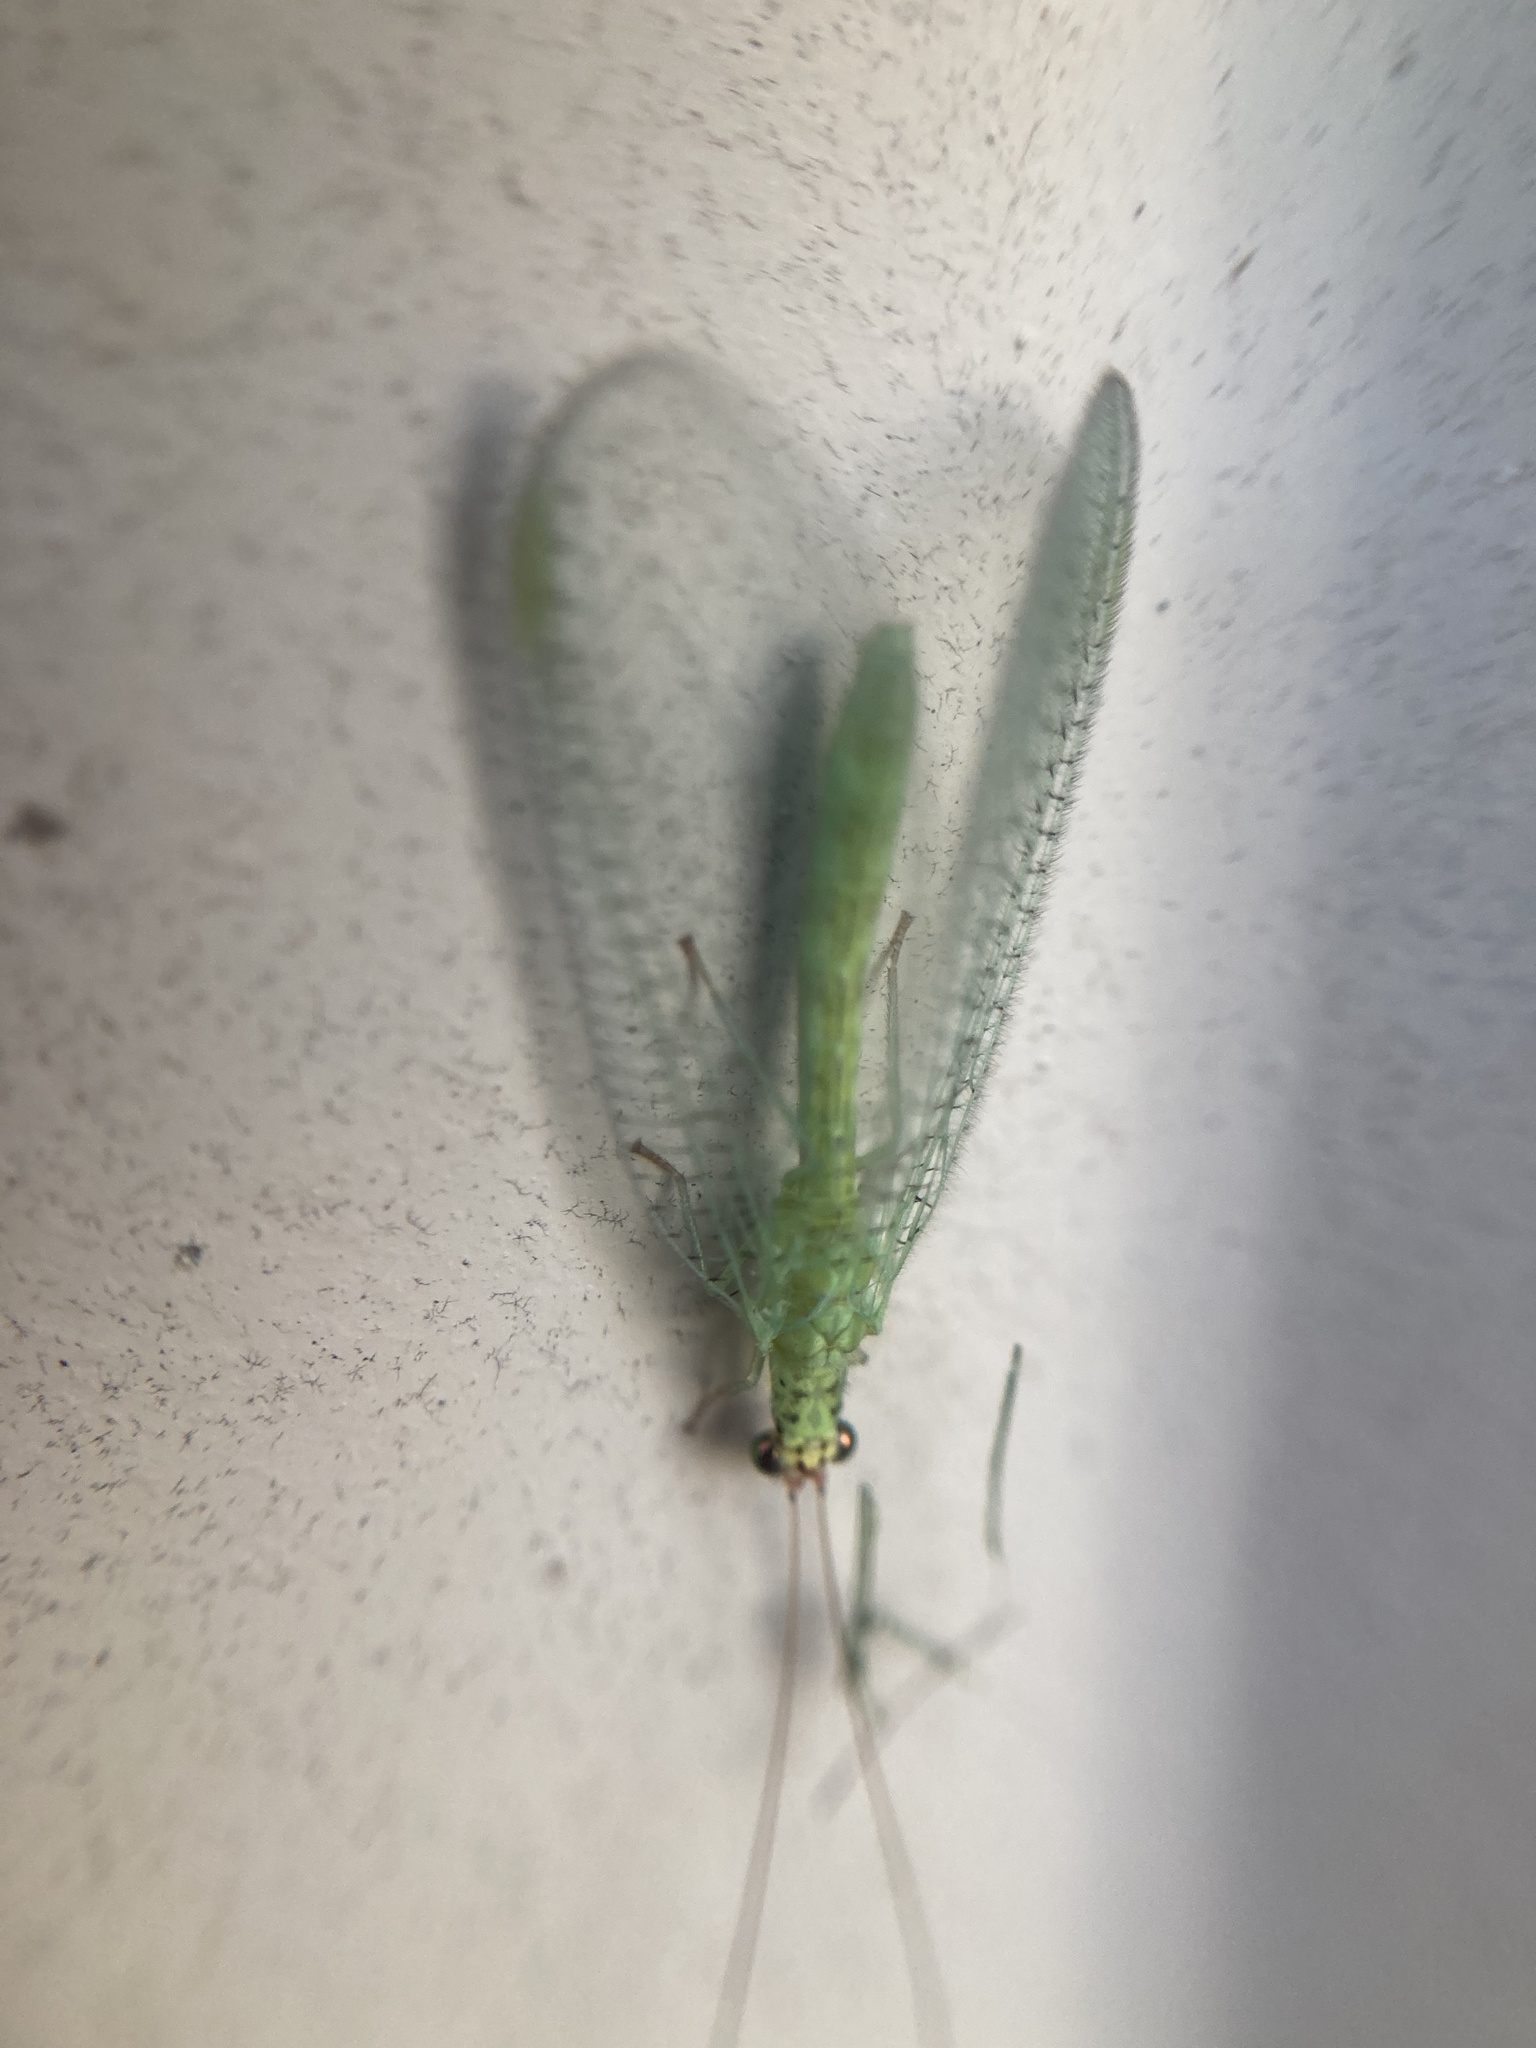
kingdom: Animalia
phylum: Arthropoda
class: Insecta
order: Neuroptera
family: Chrysopidae
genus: Chrysopa
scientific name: Chrysopa oculata
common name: Golden-eyed lacewing
